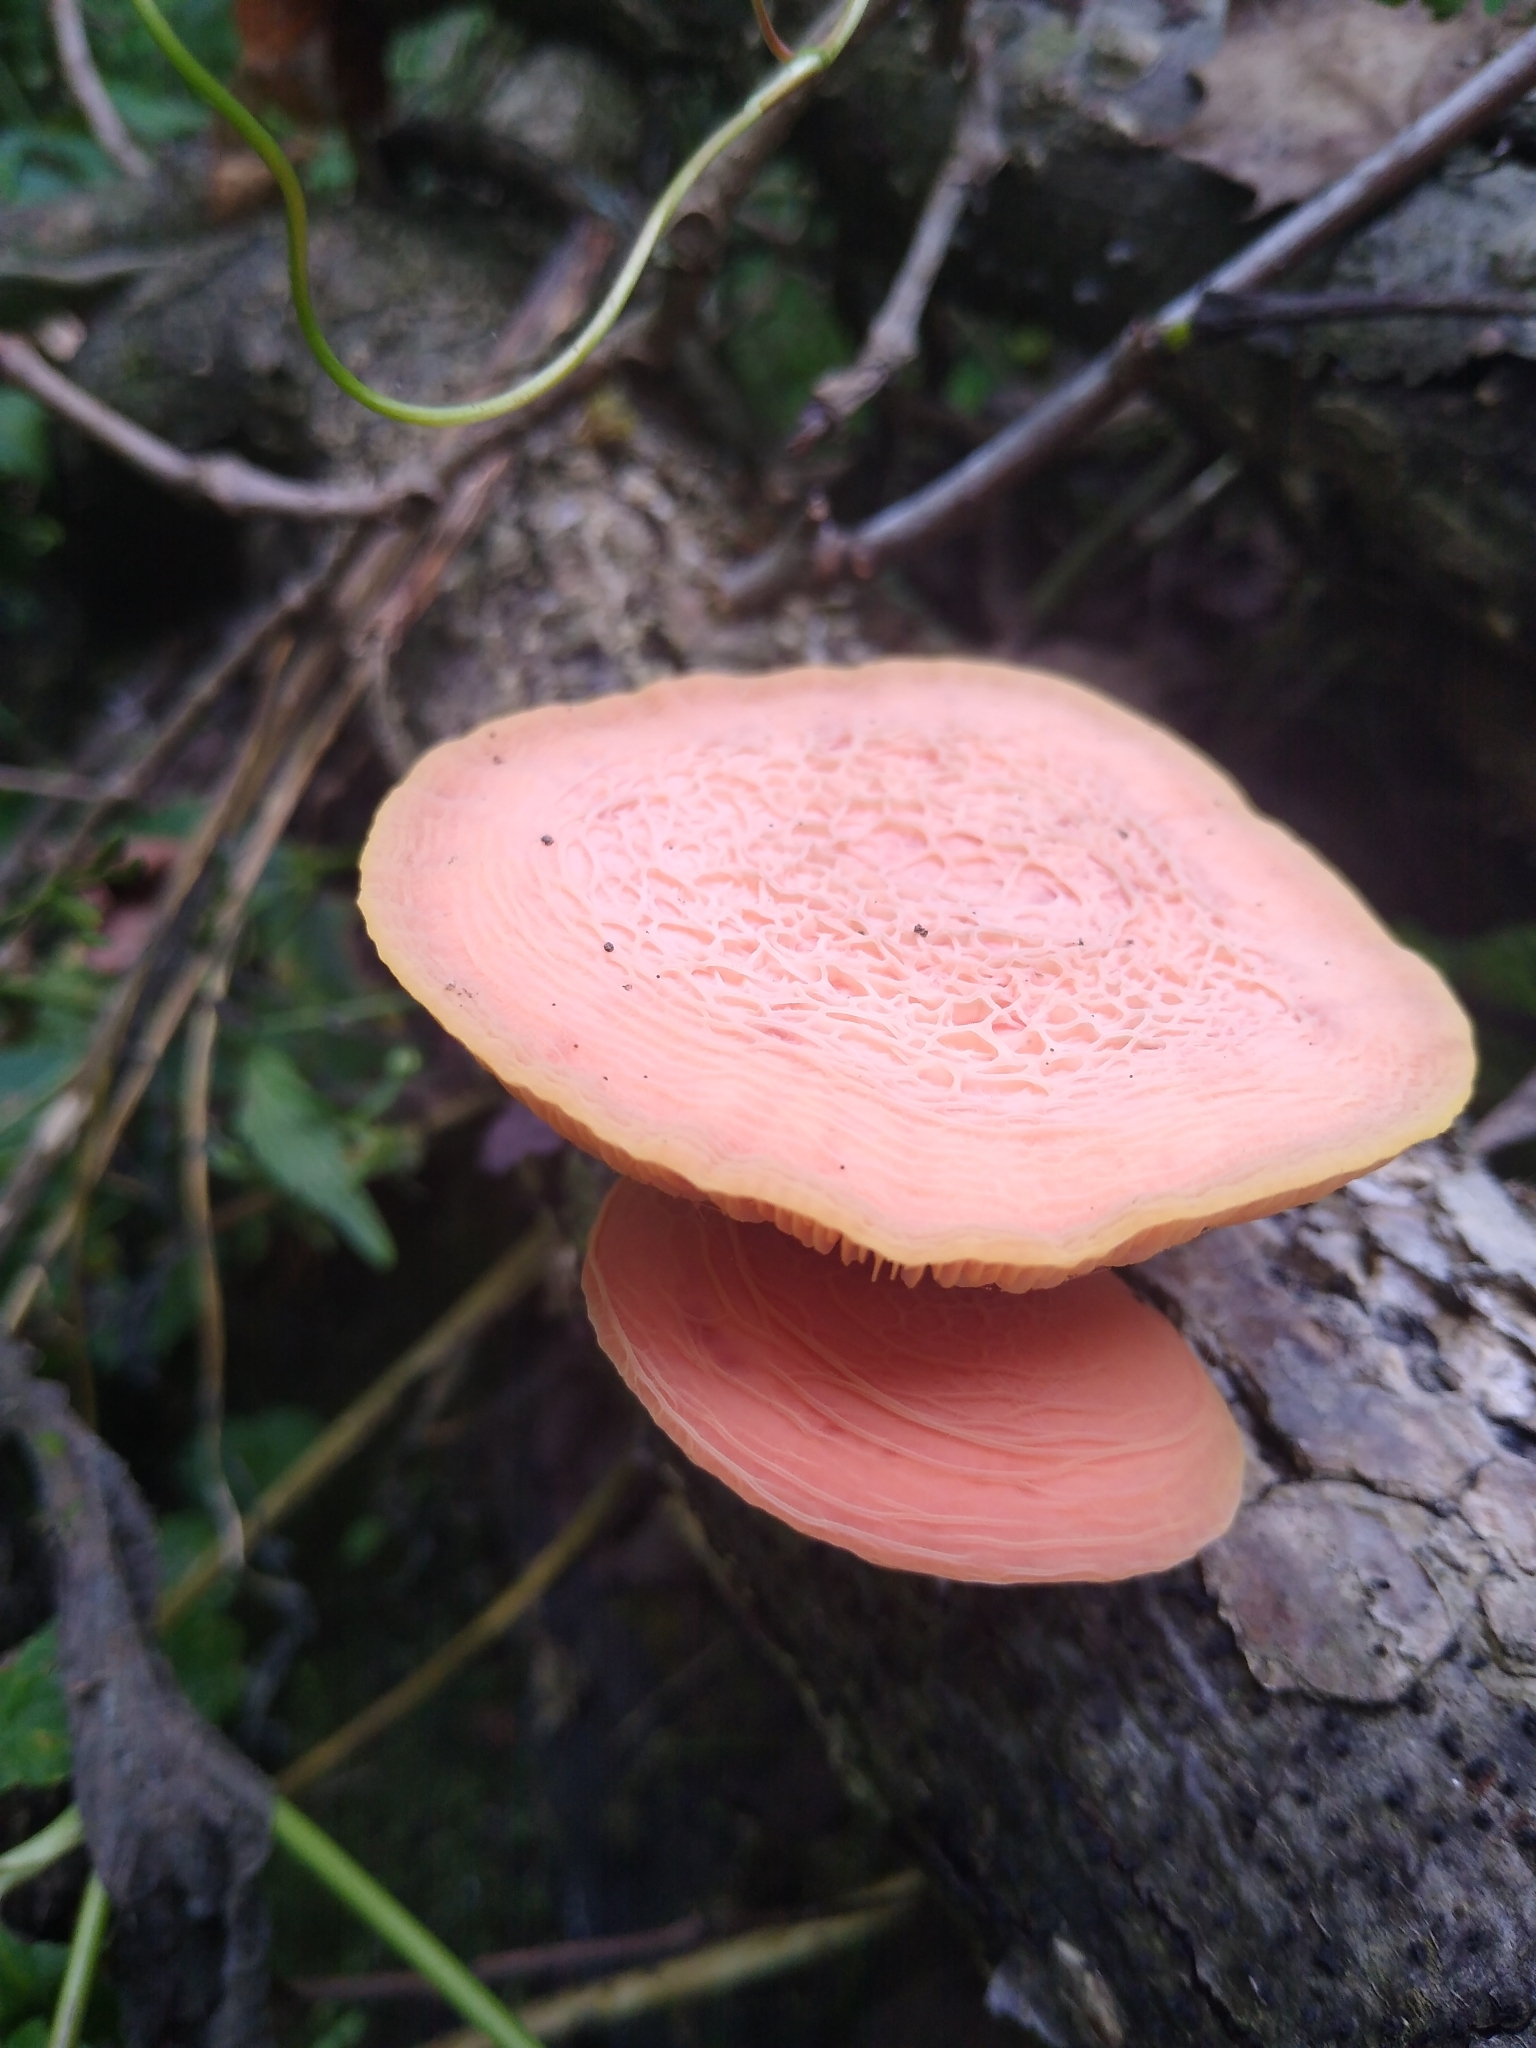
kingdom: Fungi
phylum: Basidiomycota
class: Agaricomycetes
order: Agaricales
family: Physalacriaceae
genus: Rhodotus
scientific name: Rhodotus palmatus
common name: Wrinkled peach
